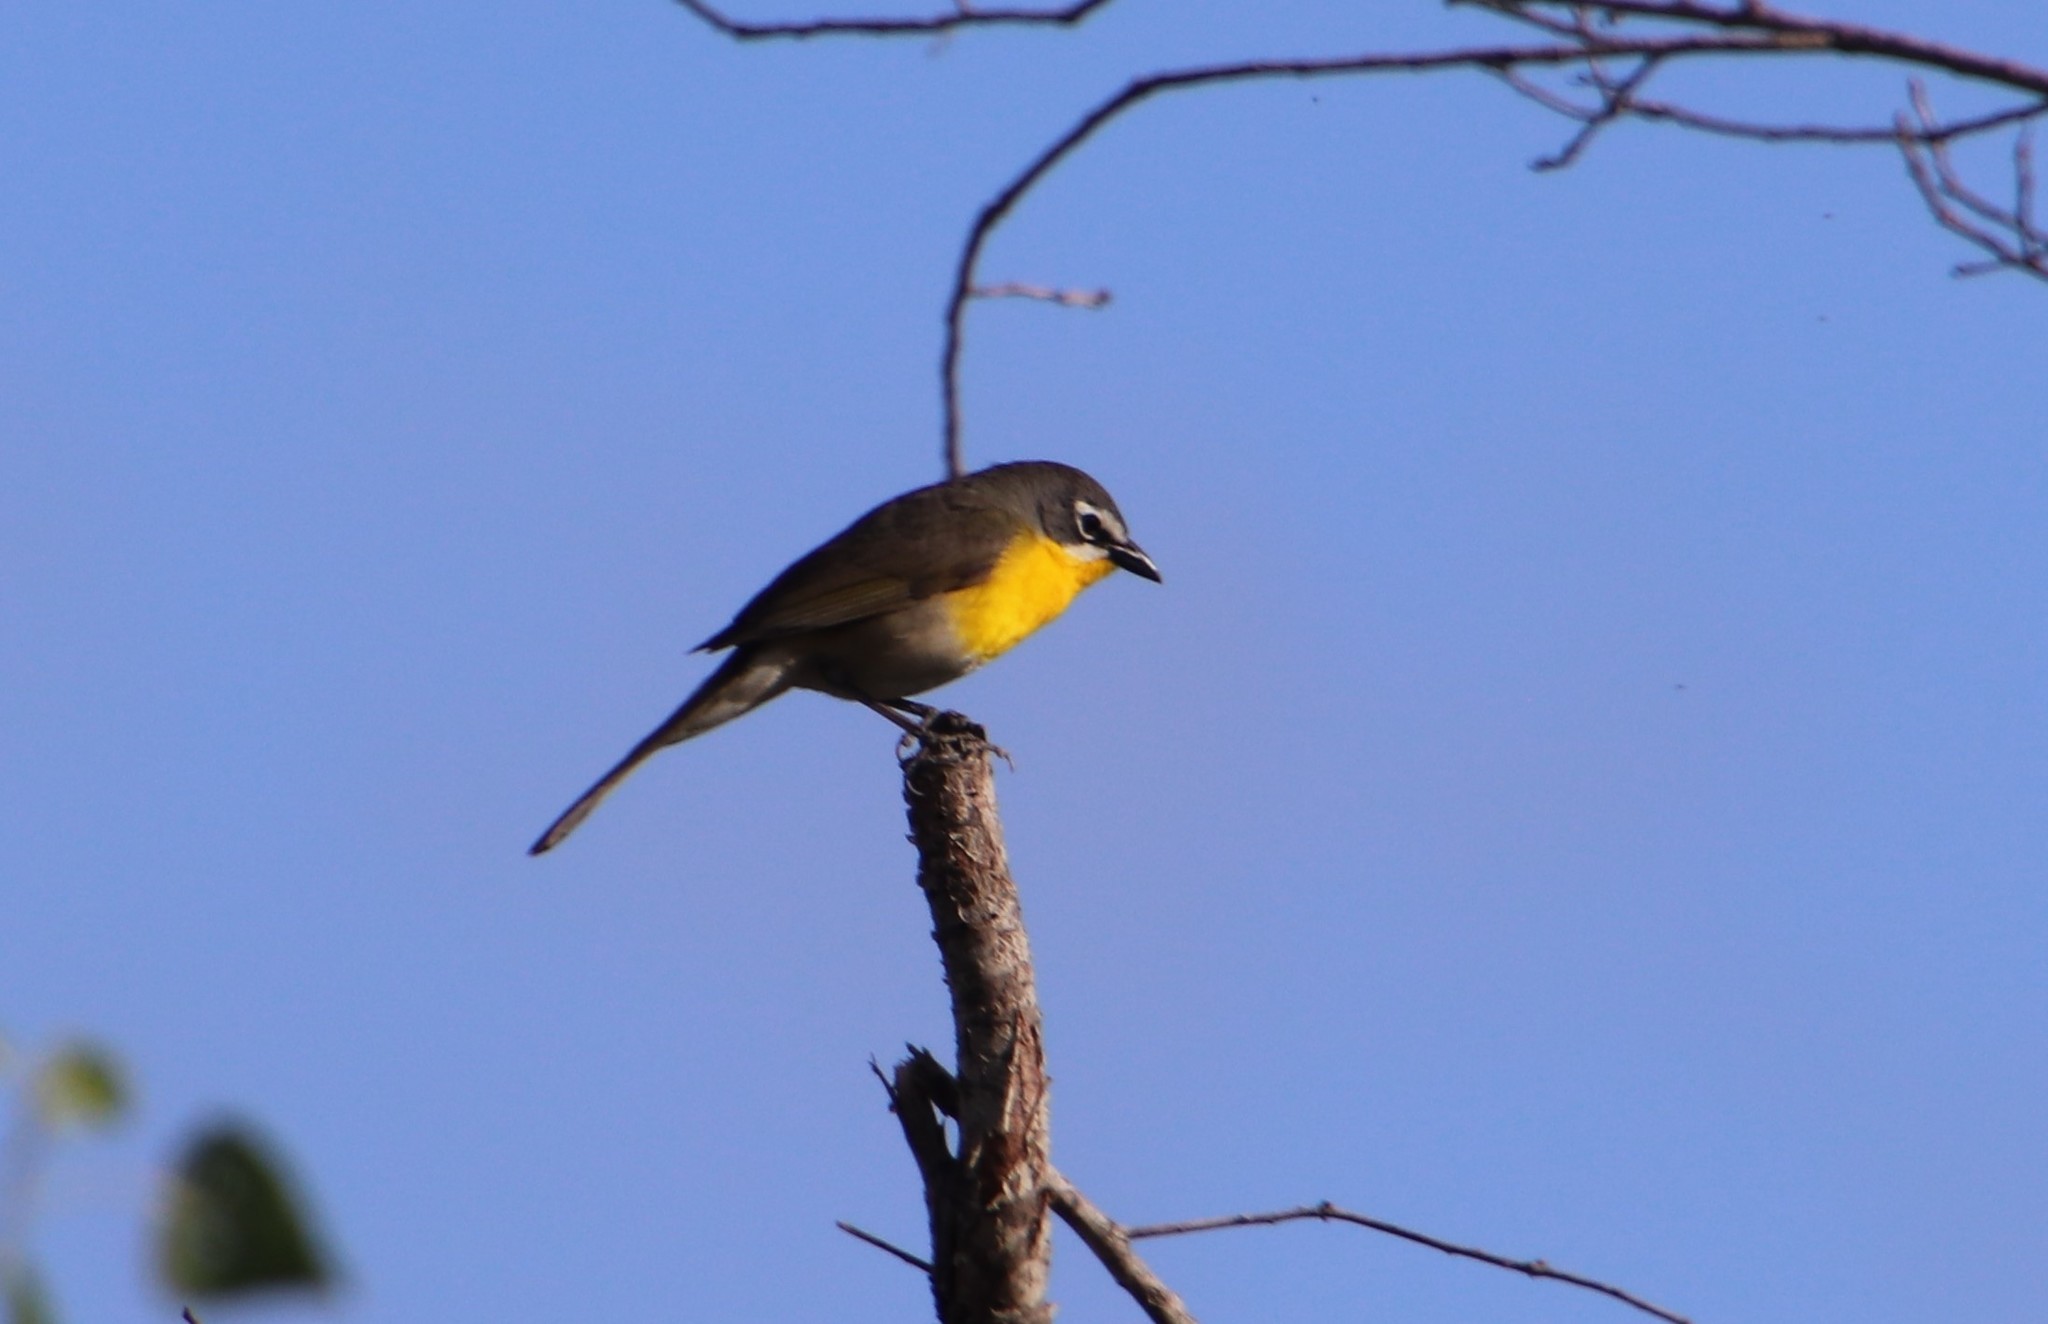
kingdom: Animalia
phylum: Chordata
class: Aves
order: Passeriformes
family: Parulidae
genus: Icteria
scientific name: Icteria virens
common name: Yellow-breasted chat
